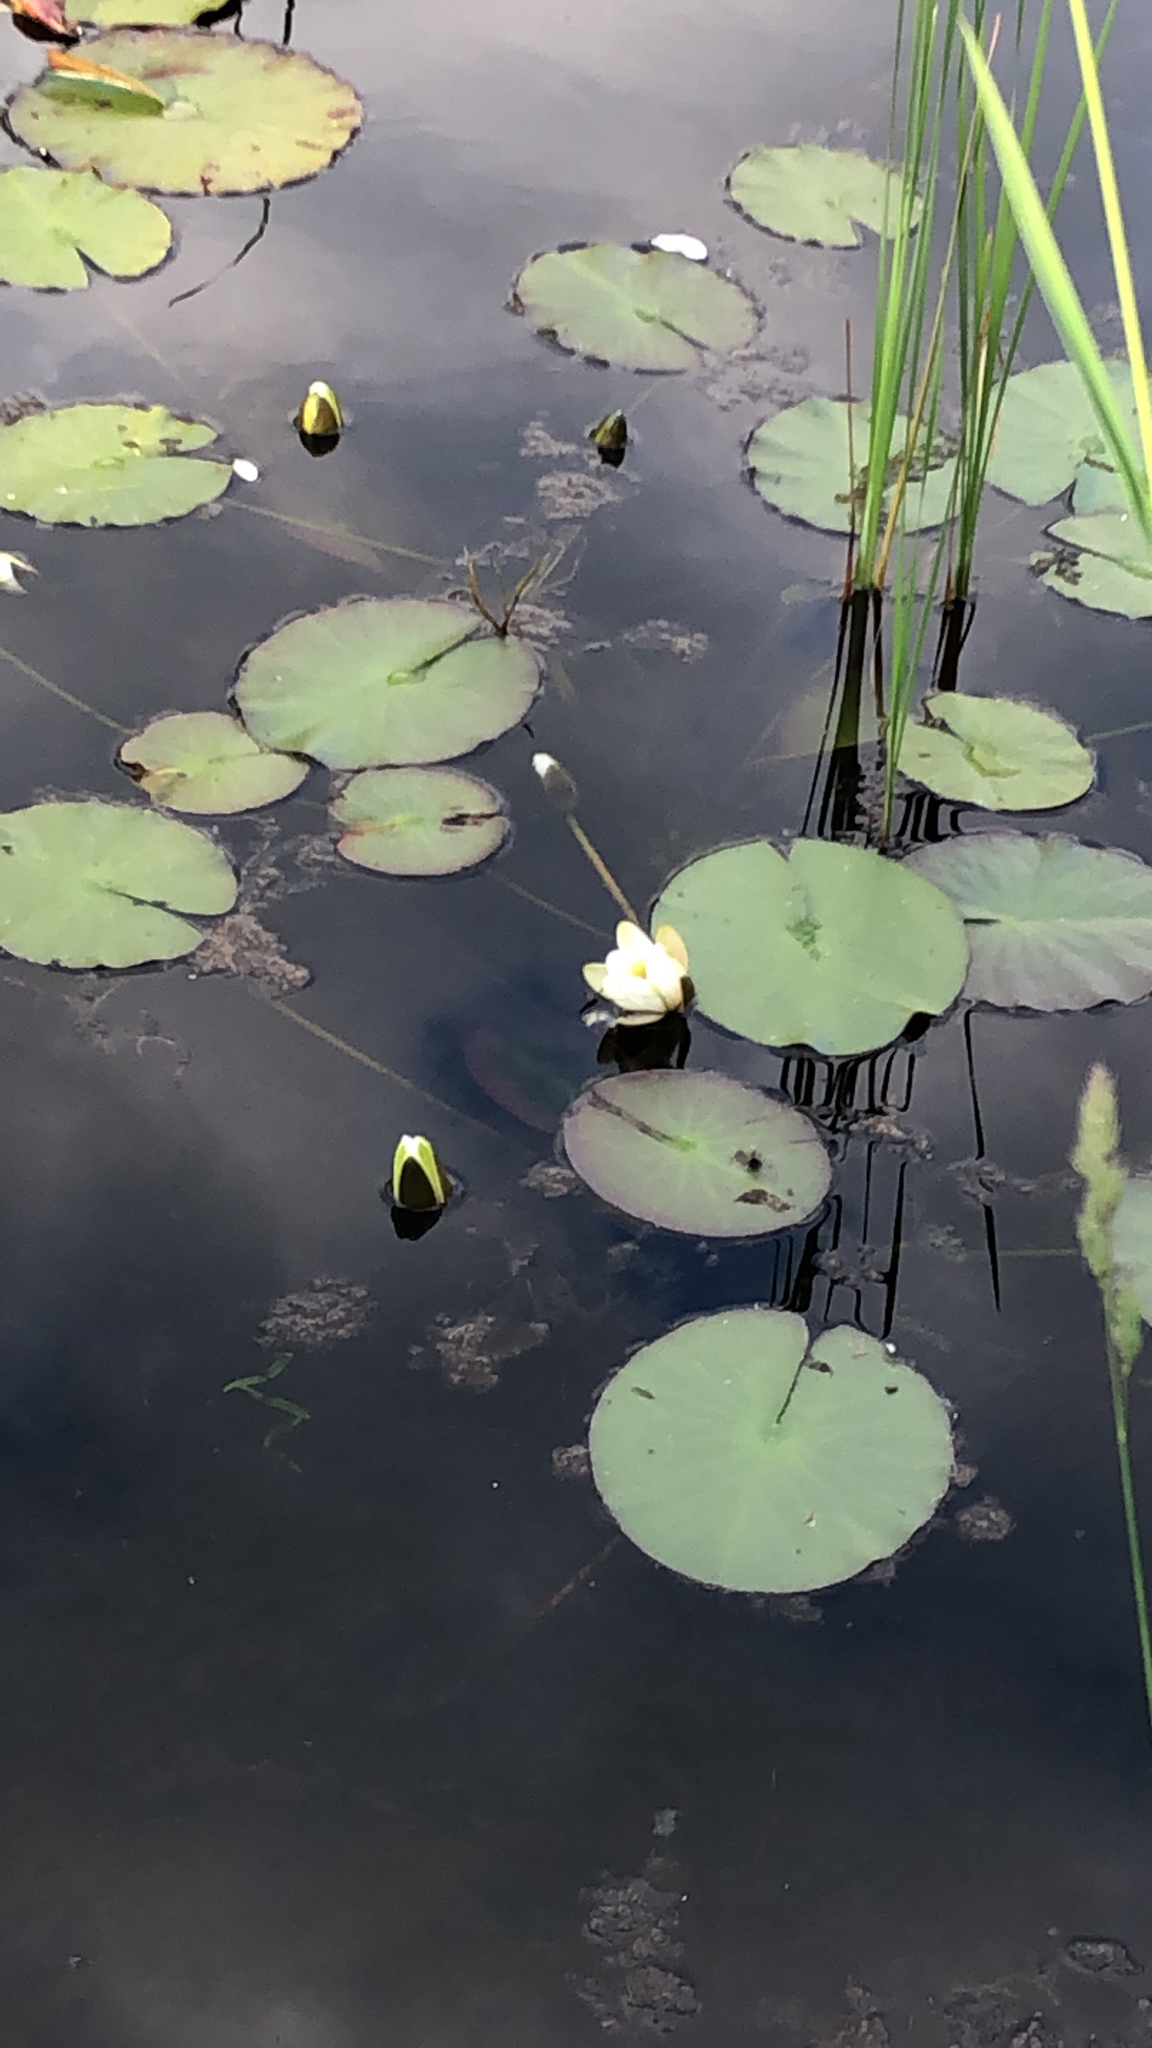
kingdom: Plantae
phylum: Tracheophyta
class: Magnoliopsida
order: Nymphaeales
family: Nymphaeaceae
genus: Nymphaea
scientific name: Nymphaea alba
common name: White water-lily
